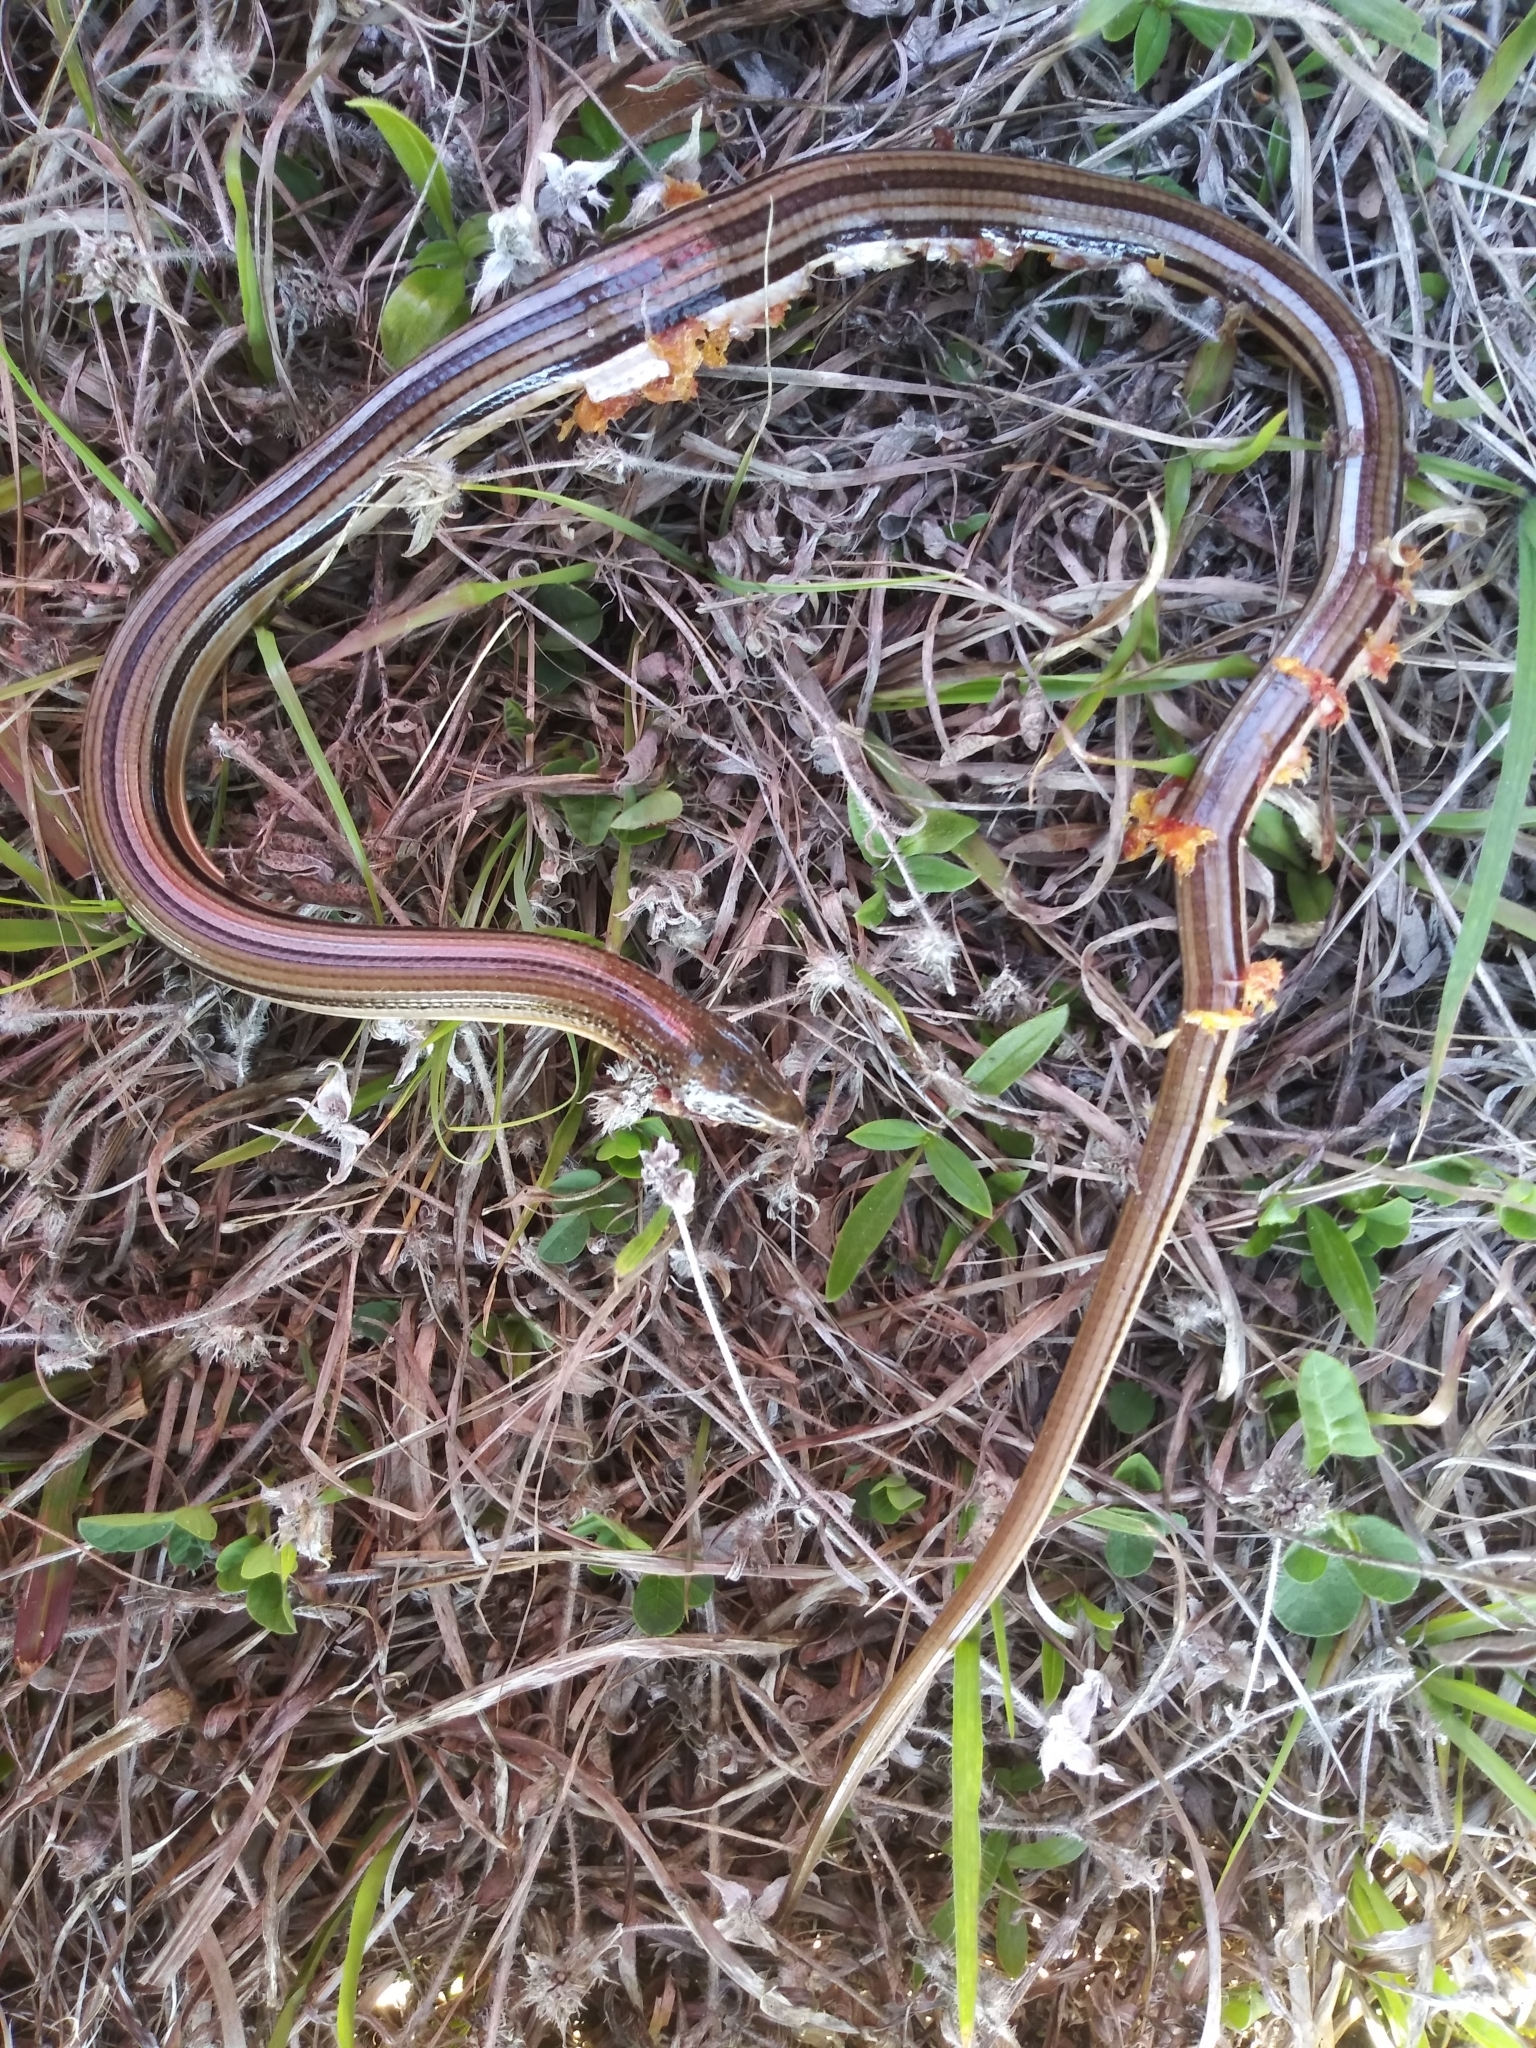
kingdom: Animalia
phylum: Chordata
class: Squamata
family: Anguidae
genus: Ophisaurus
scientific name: Ophisaurus compressus
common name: Island glass lizard
